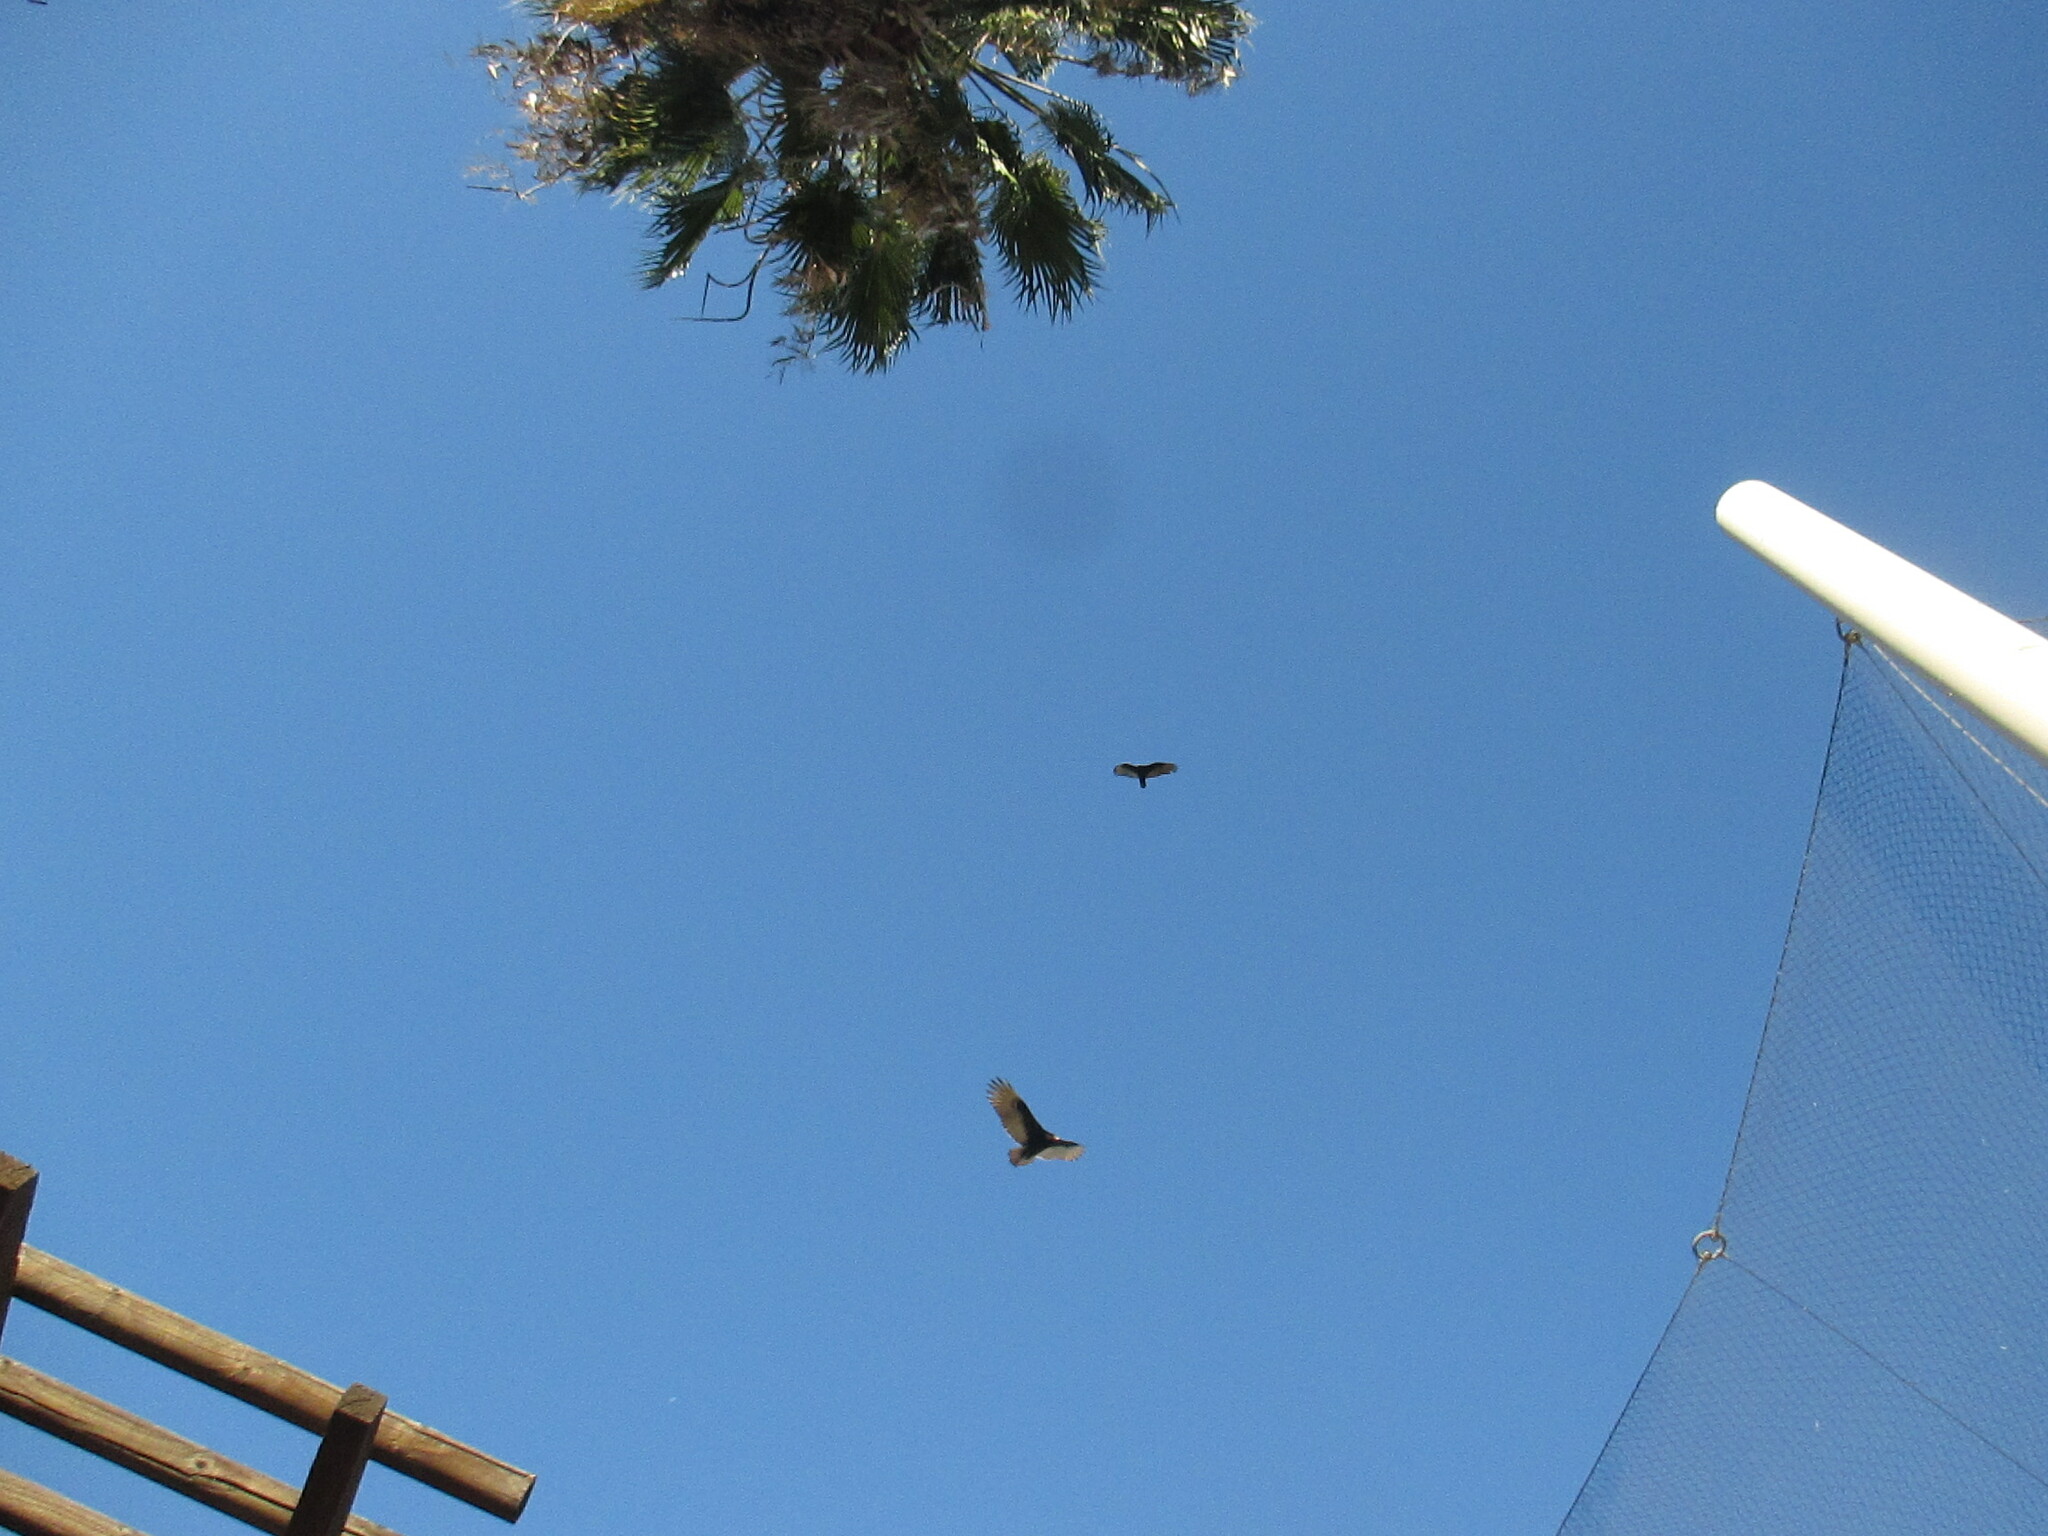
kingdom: Animalia
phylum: Chordata
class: Aves
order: Accipitriformes
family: Cathartidae
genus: Cathartes
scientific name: Cathartes aura
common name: Turkey vulture
